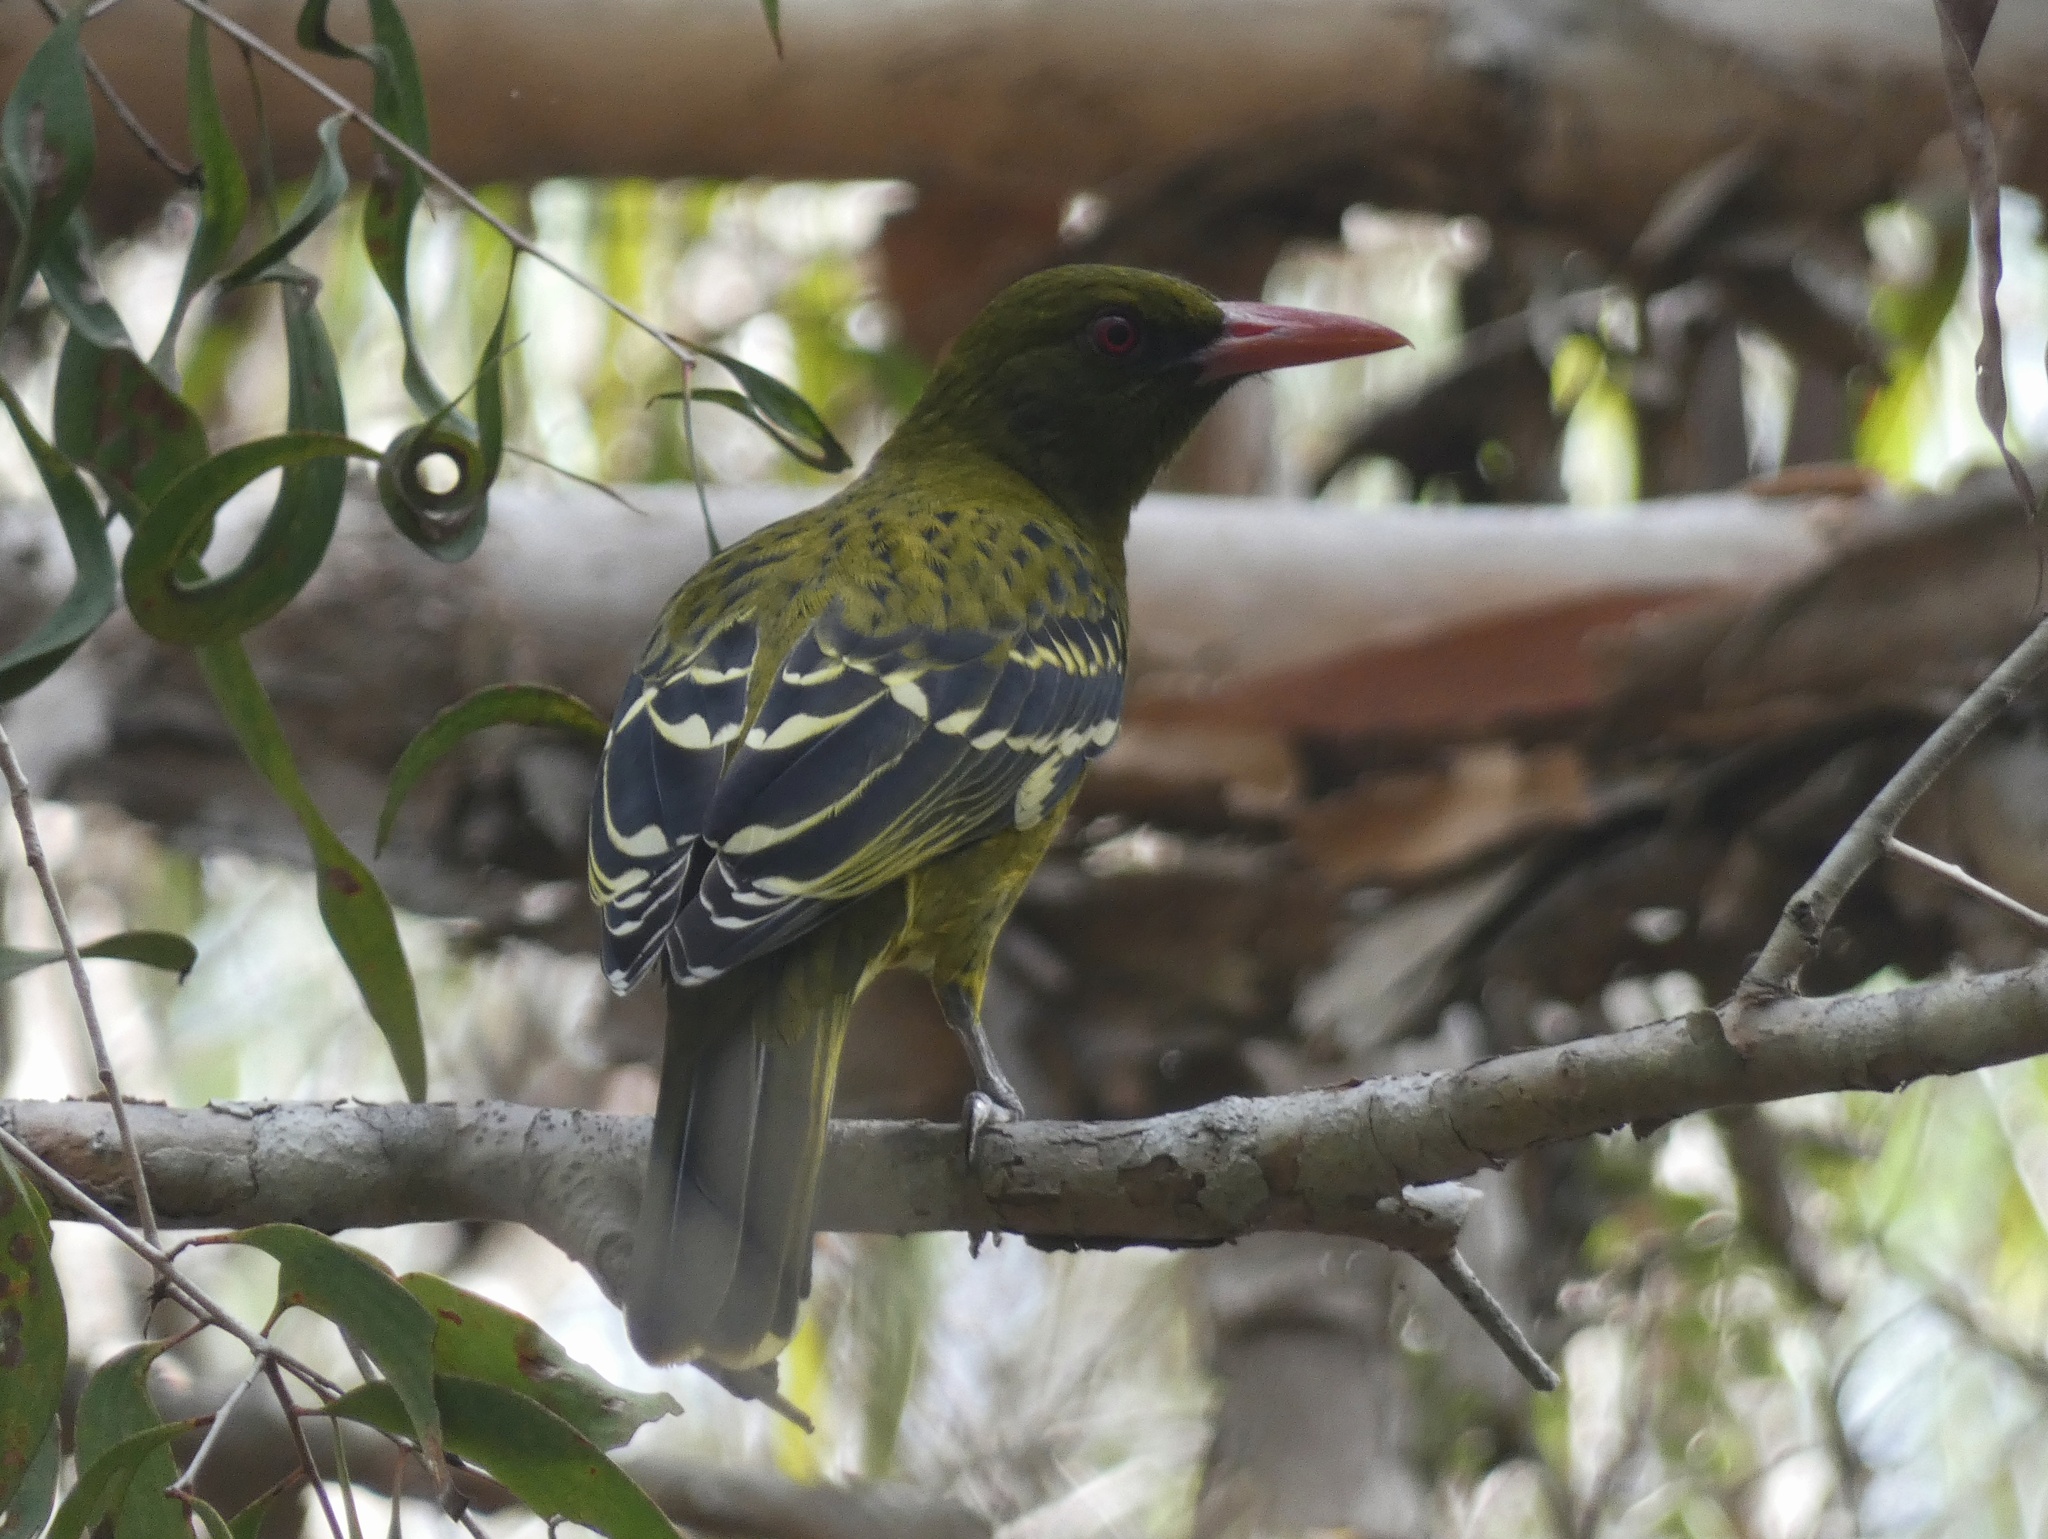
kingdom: Animalia
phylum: Chordata
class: Aves
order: Passeriformes
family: Oriolidae
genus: Oriolus
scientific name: Oriolus flavocinctus
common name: Green oriole
